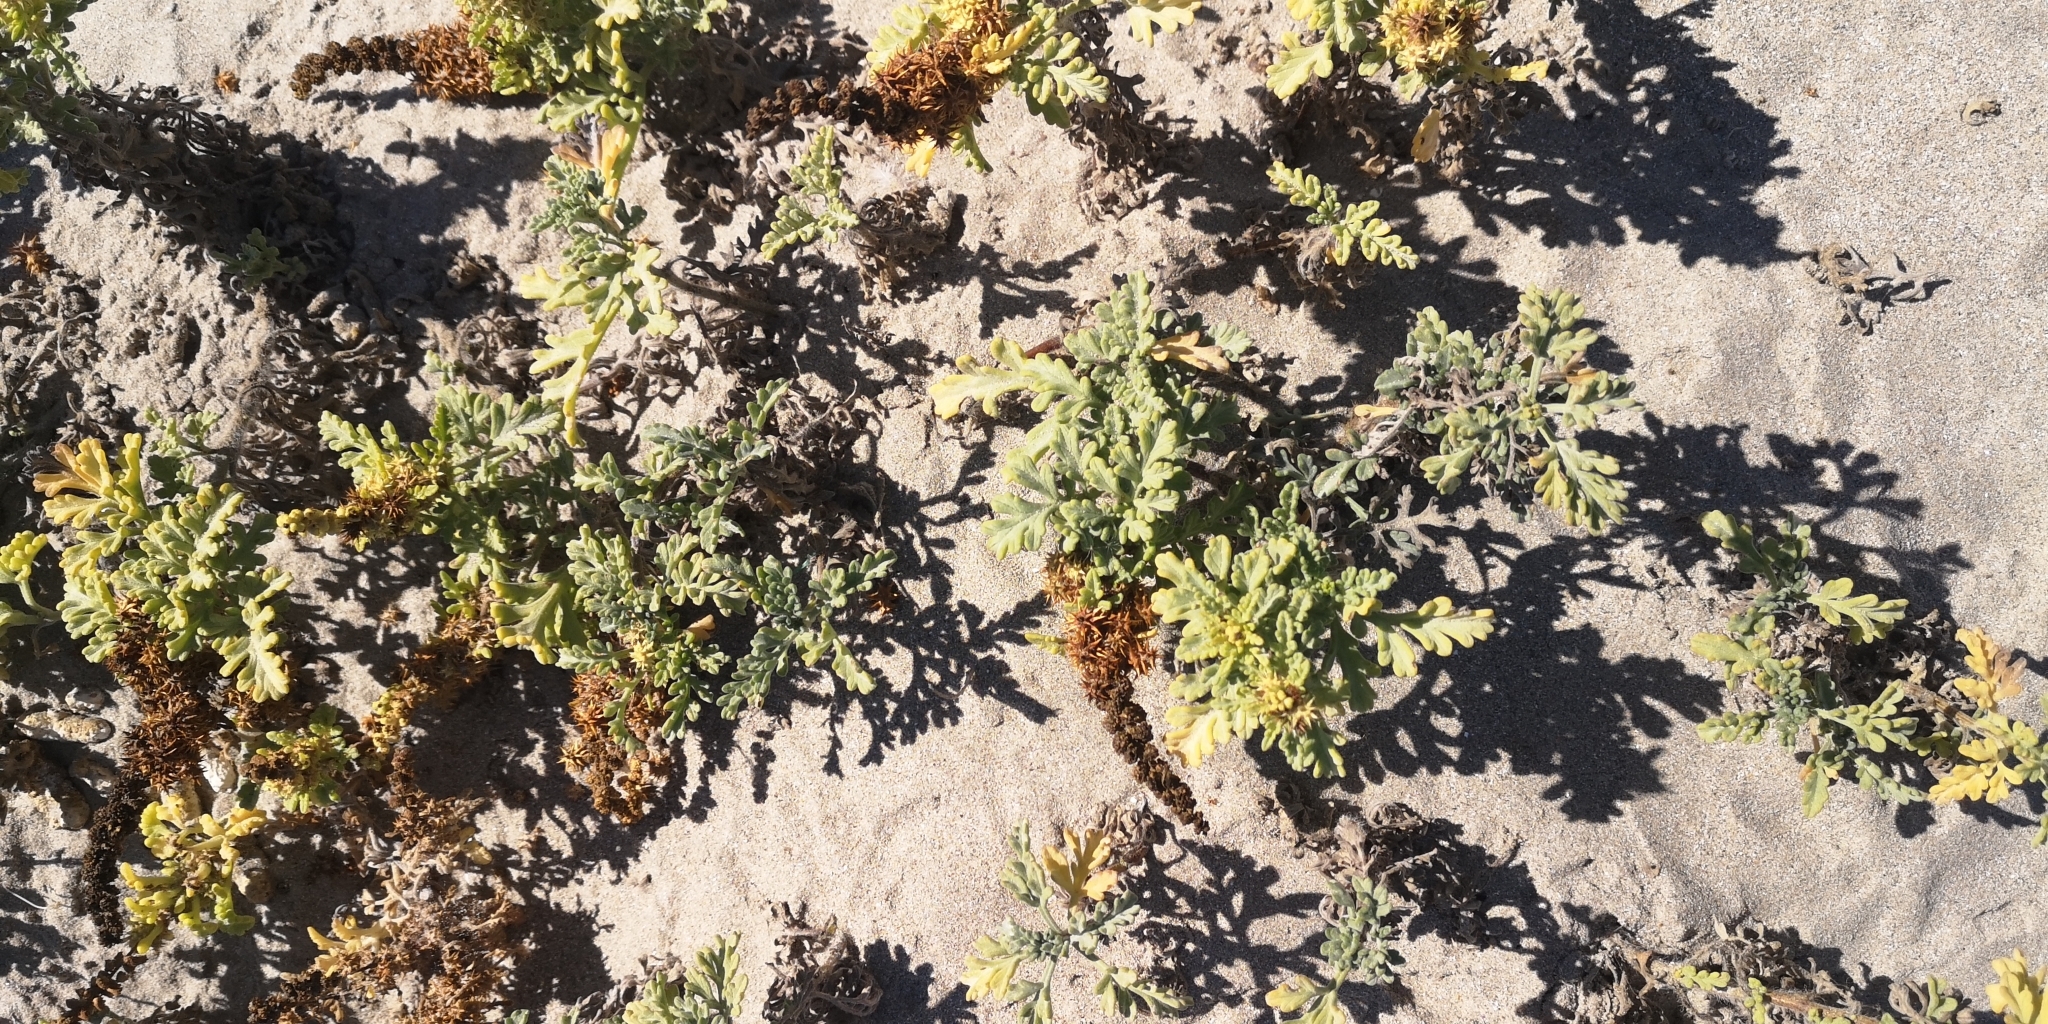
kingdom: Plantae
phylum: Tracheophyta
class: Magnoliopsida
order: Asterales
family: Asteraceae
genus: Ambrosia
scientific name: Ambrosia chamissonis
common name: Beachbur
